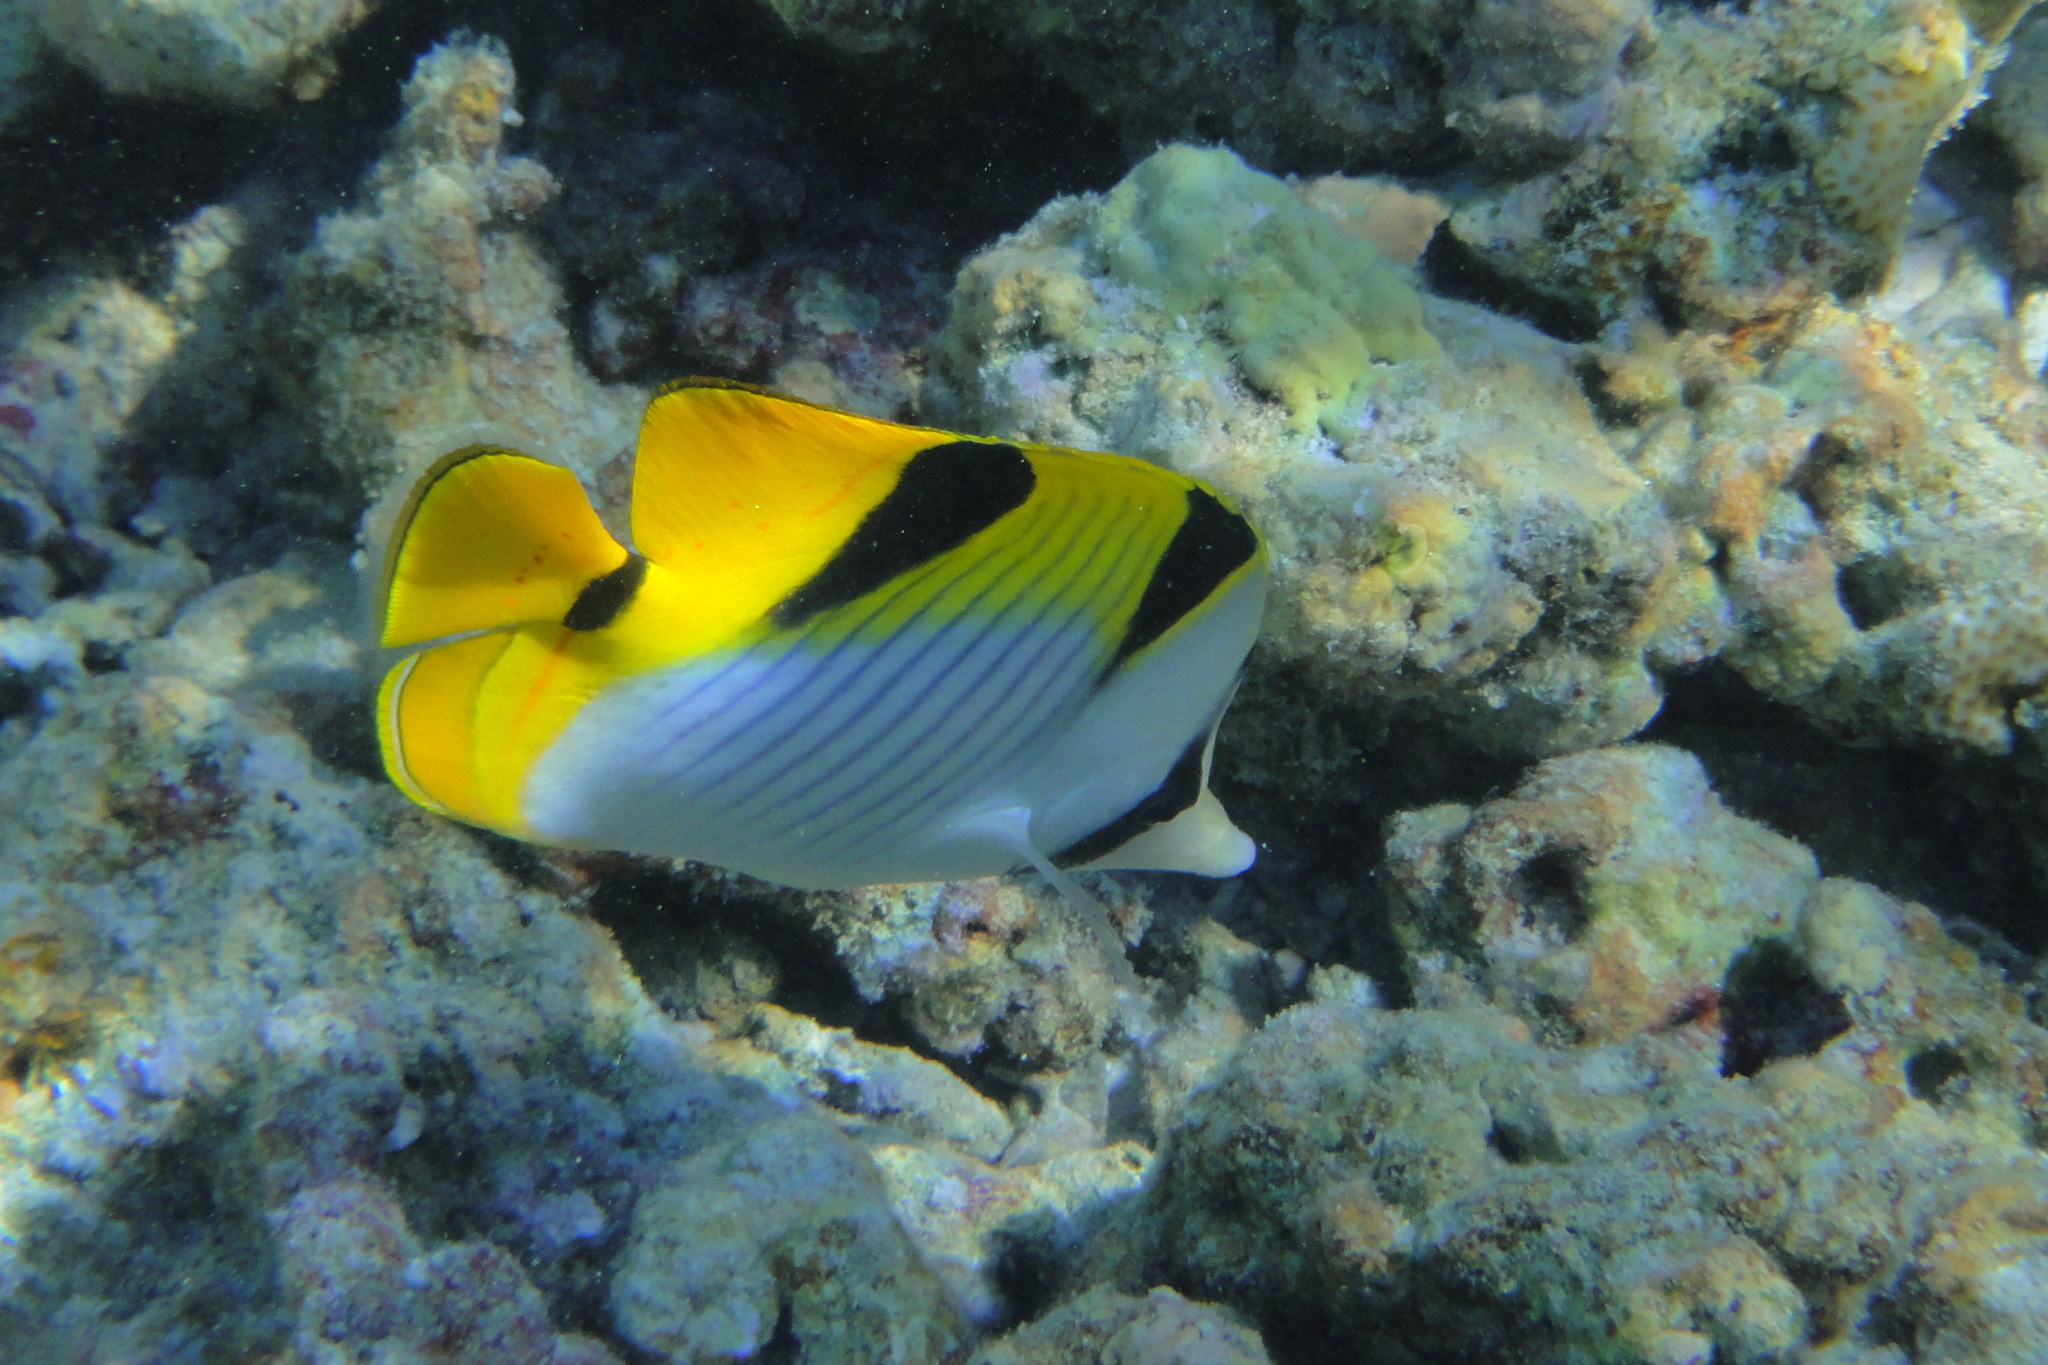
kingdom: Animalia
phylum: Chordata
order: Perciformes
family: Chaetodontidae
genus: Chaetodon
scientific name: Chaetodon falcula
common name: Blackwedged butterflyfish
